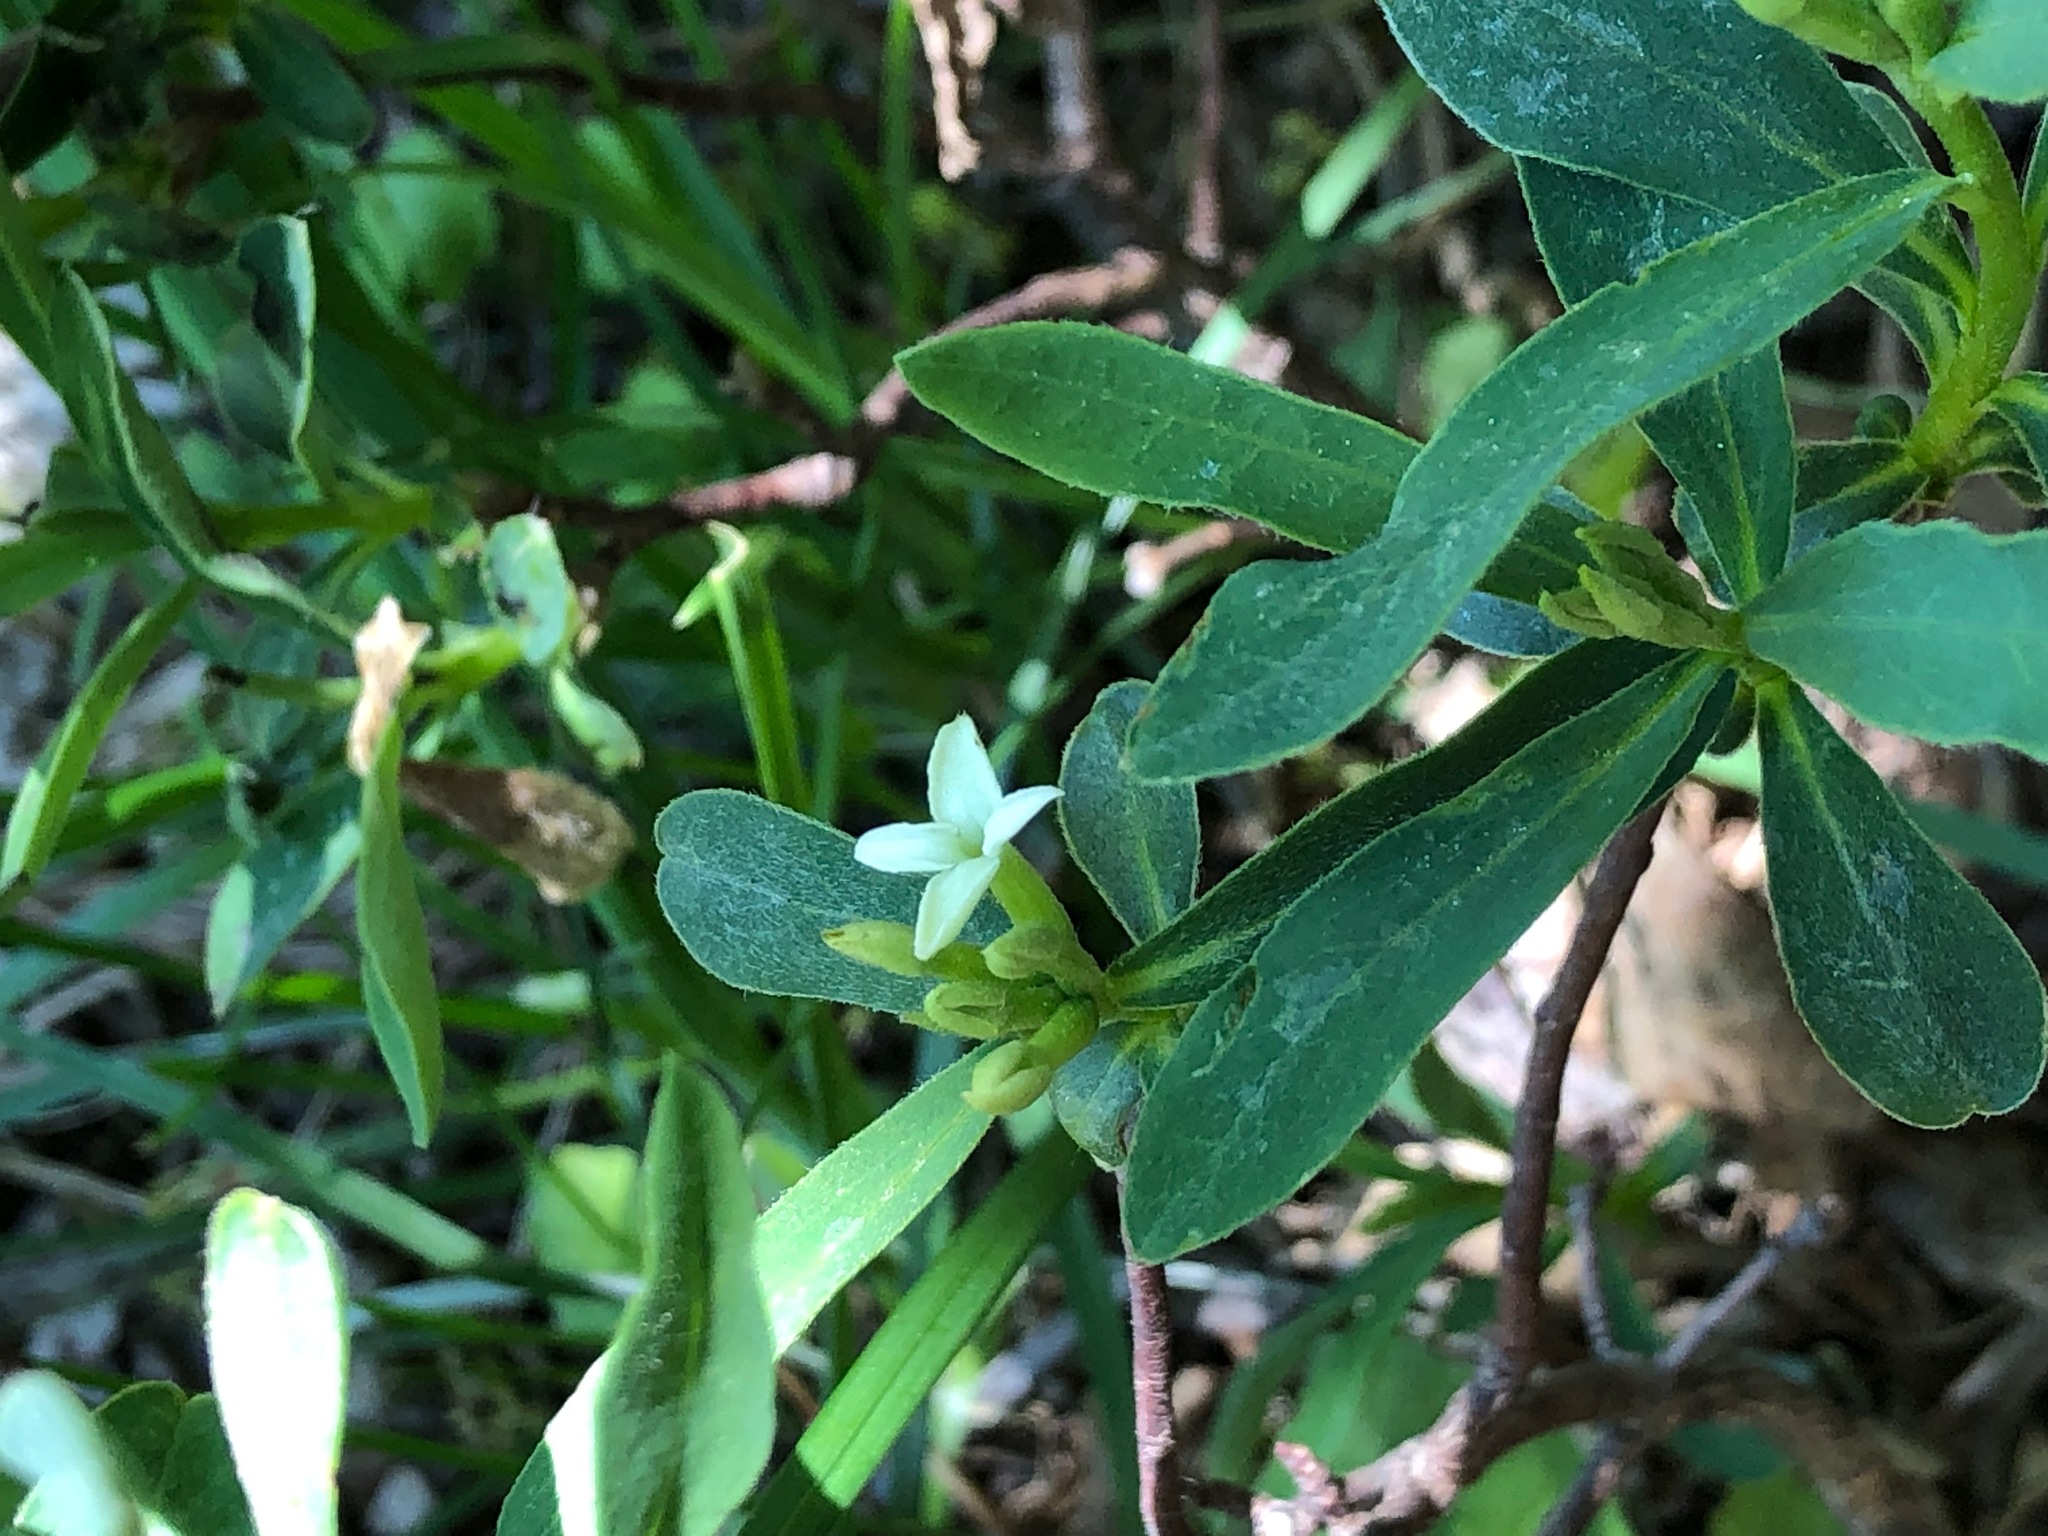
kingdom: Plantae
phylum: Tracheophyta
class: Magnoliopsida
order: Malvales
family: Thymelaeaceae
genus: Daphne
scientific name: Daphne alpina
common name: Alpine daphne
